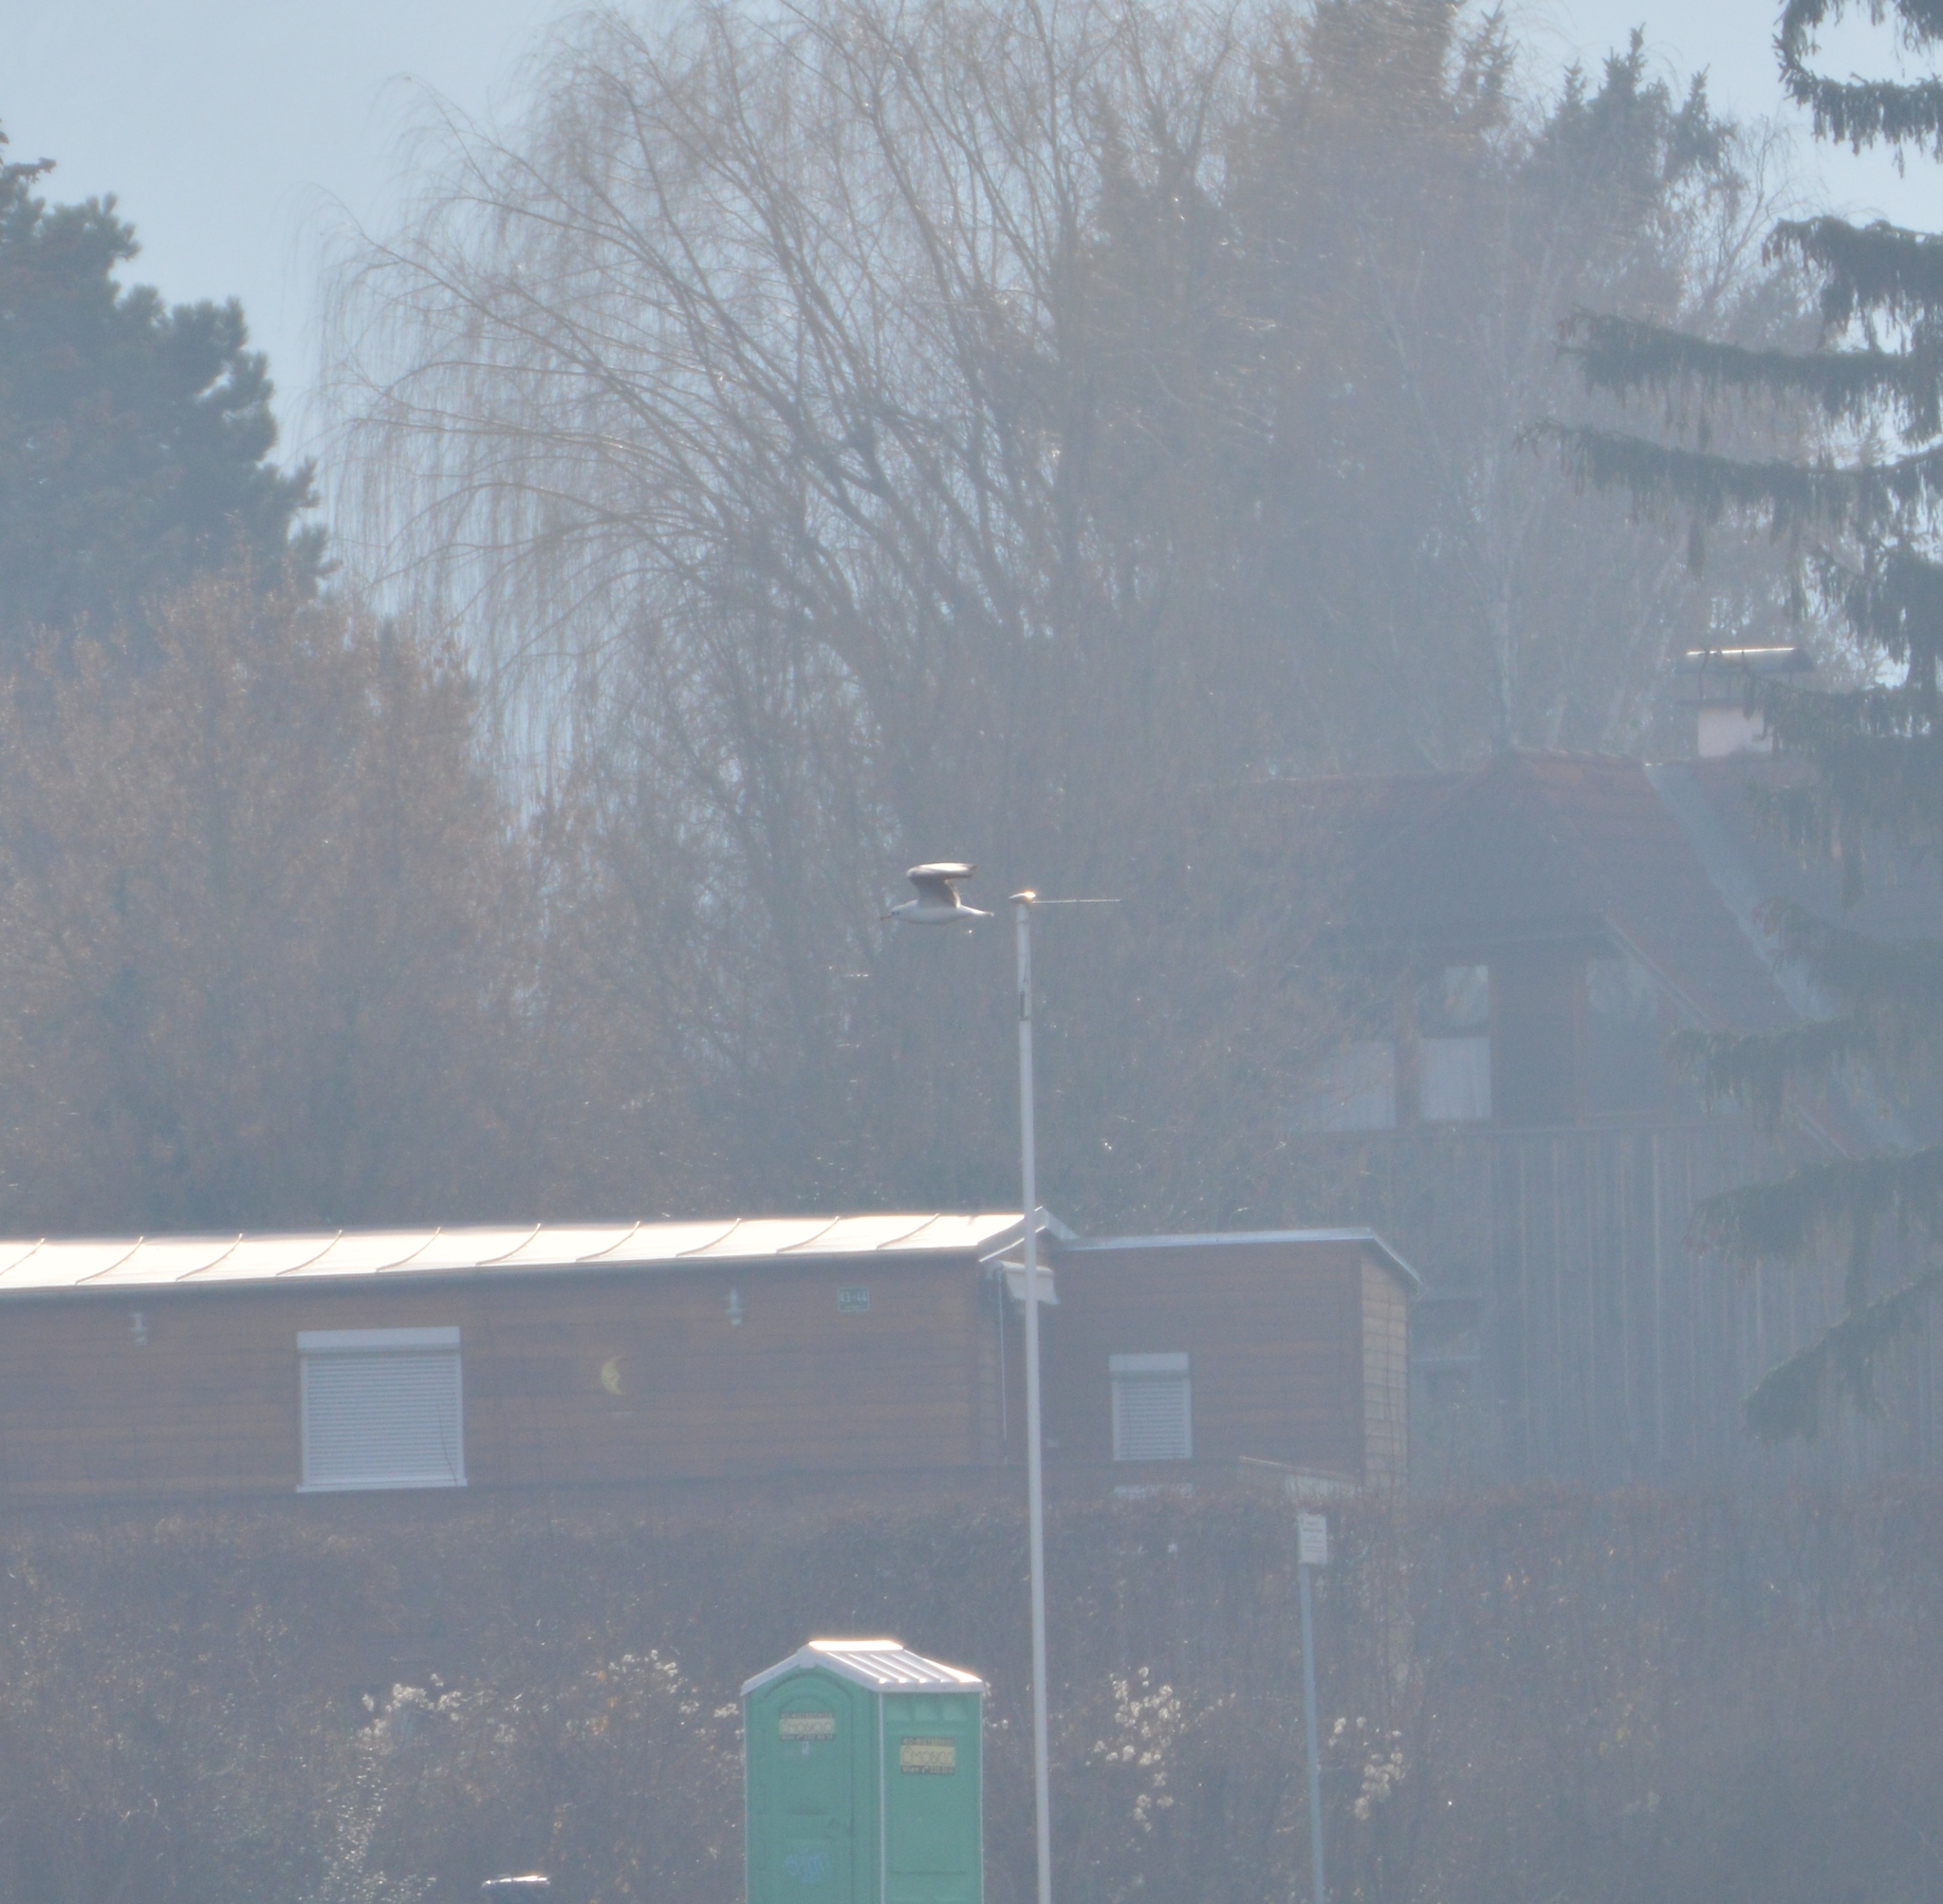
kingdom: Animalia
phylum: Chordata
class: Aves
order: Charadriiformes
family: Laridae
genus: Chroicocephalus
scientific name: Chroicocephalus ridibundus
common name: Black-headed gull
